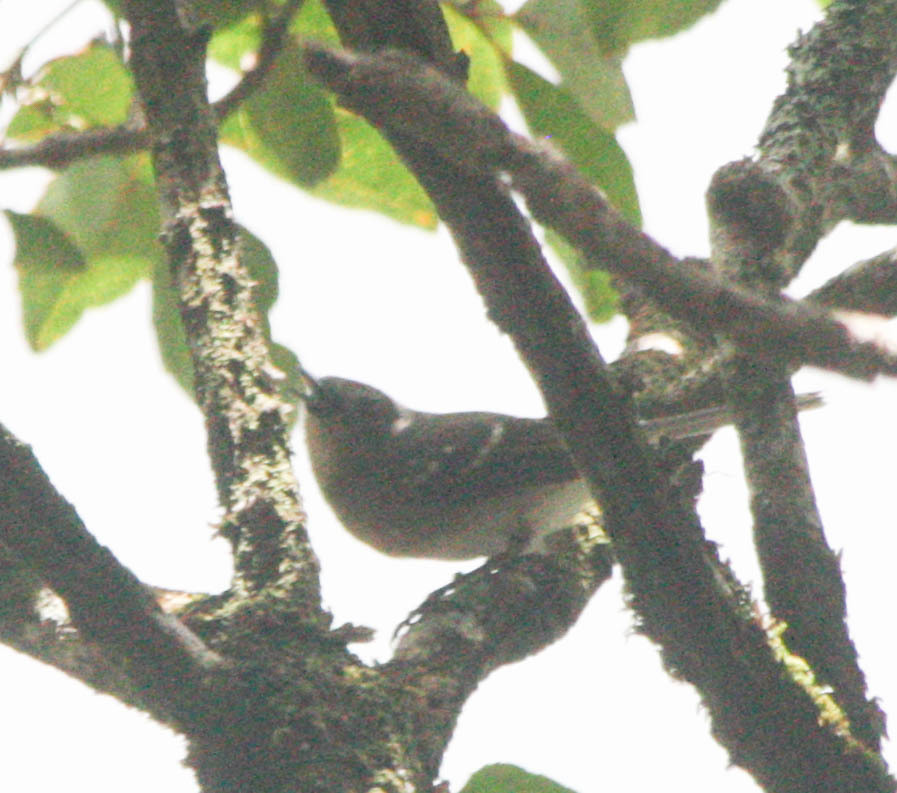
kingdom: Animalia
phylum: Chordata
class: Aves
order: Passeriformes
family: Monarchidae
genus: Chasiempis
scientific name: Chasiempis sclateri
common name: Kauai elepaio
